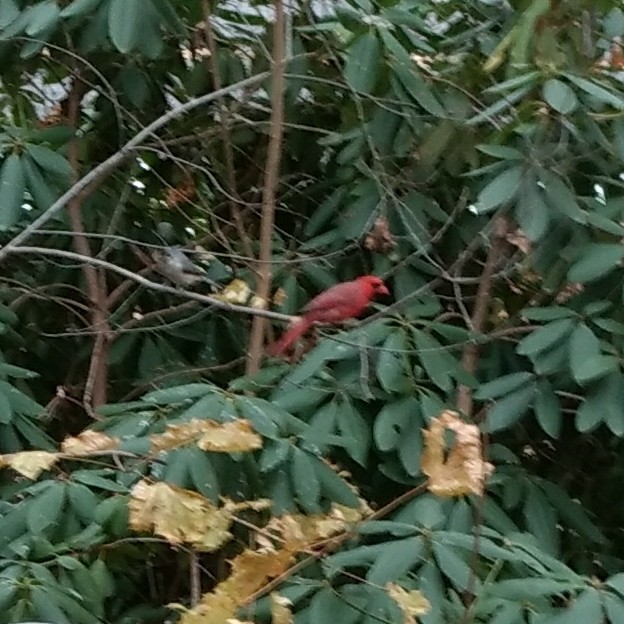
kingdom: Animalia
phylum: Chordata
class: Aves
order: Passeriformes
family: Cardinalidae
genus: Cardinalis
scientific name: Cardinalis cardinalis
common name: Northern cardinal
